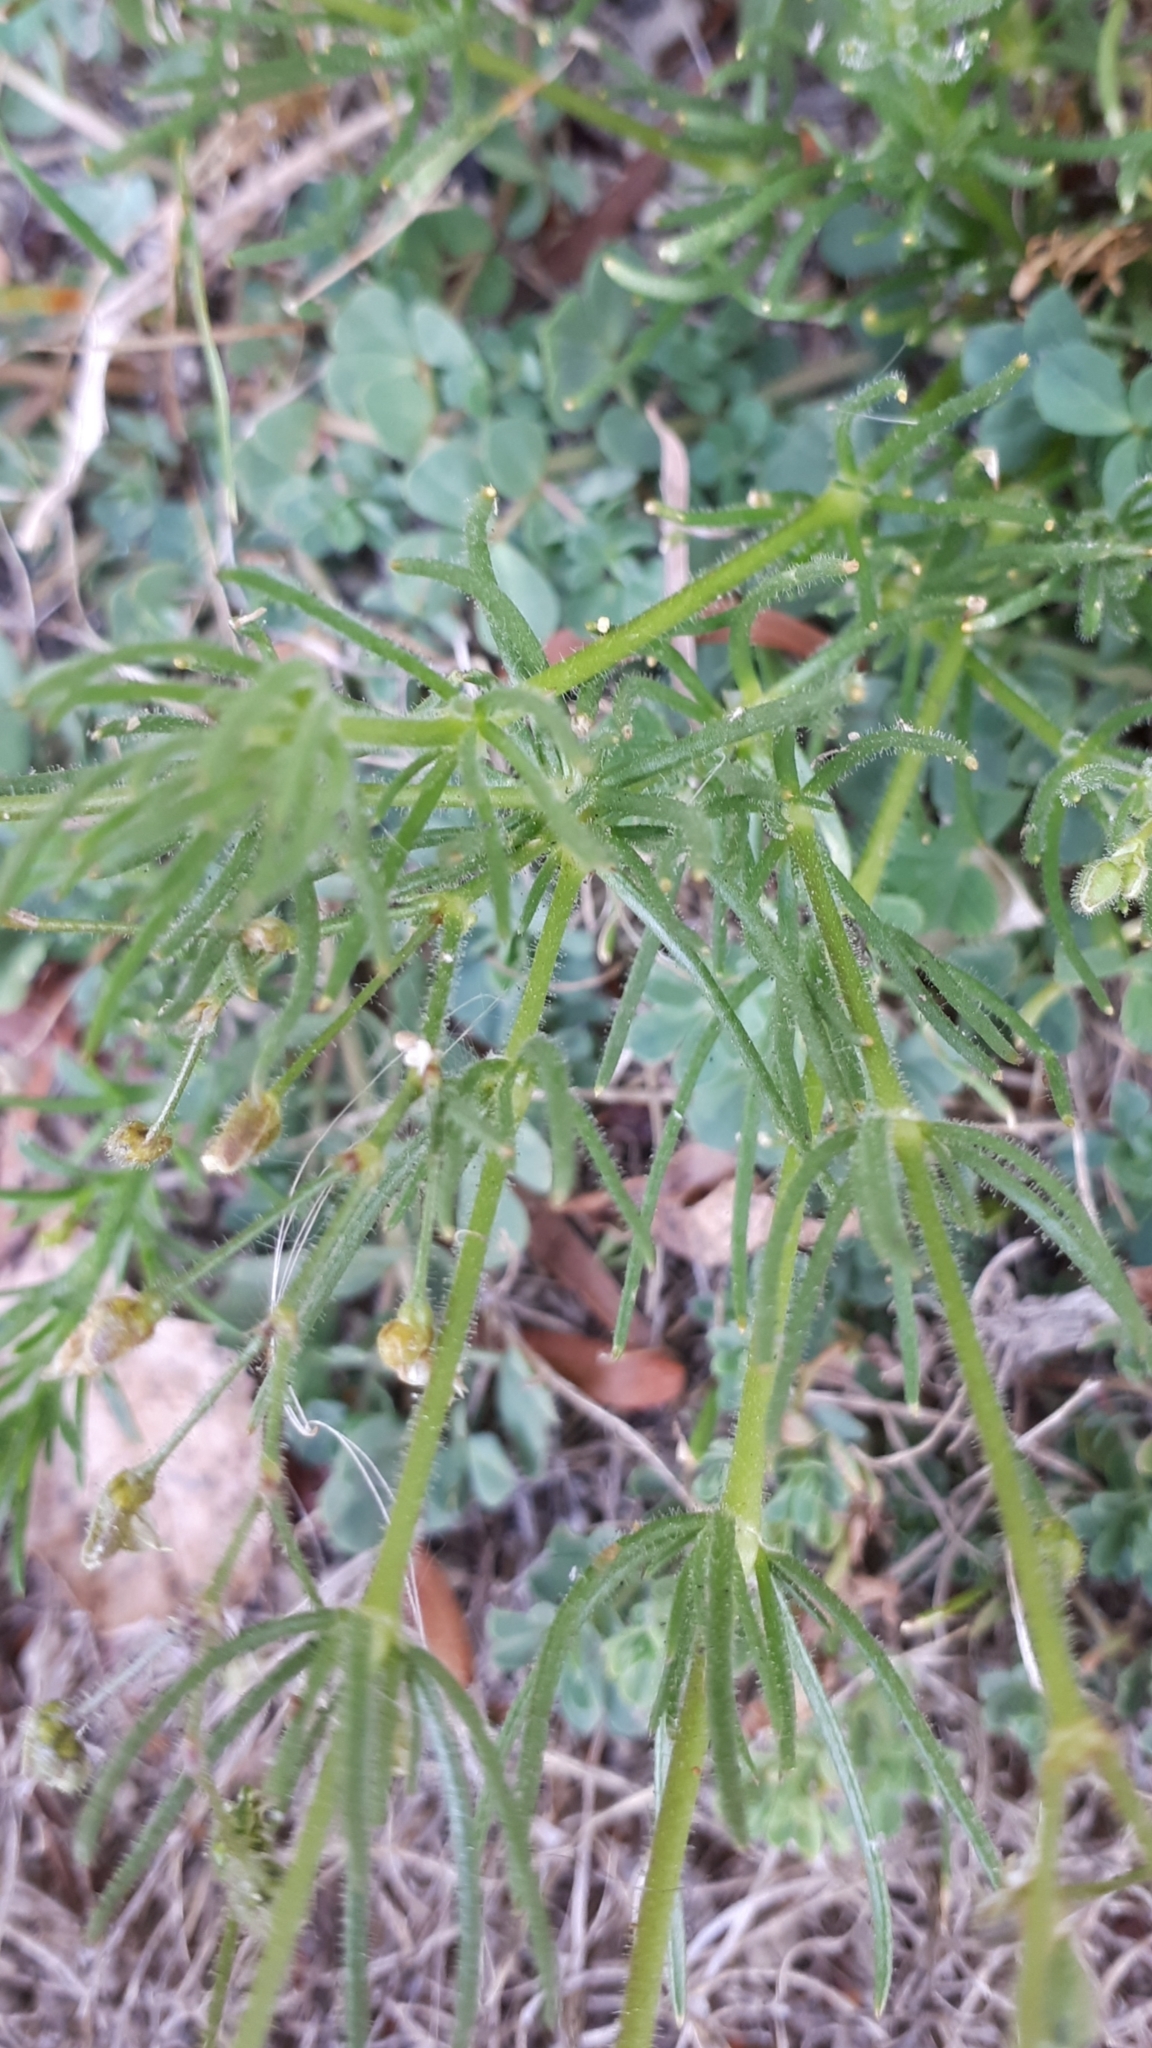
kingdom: Plantae
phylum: Tracheophyta
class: Magnoliopsida
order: Caryophyllales
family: Caryophyllaceae
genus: Spergula
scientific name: Spergula arvensis
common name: Corn spurrey
